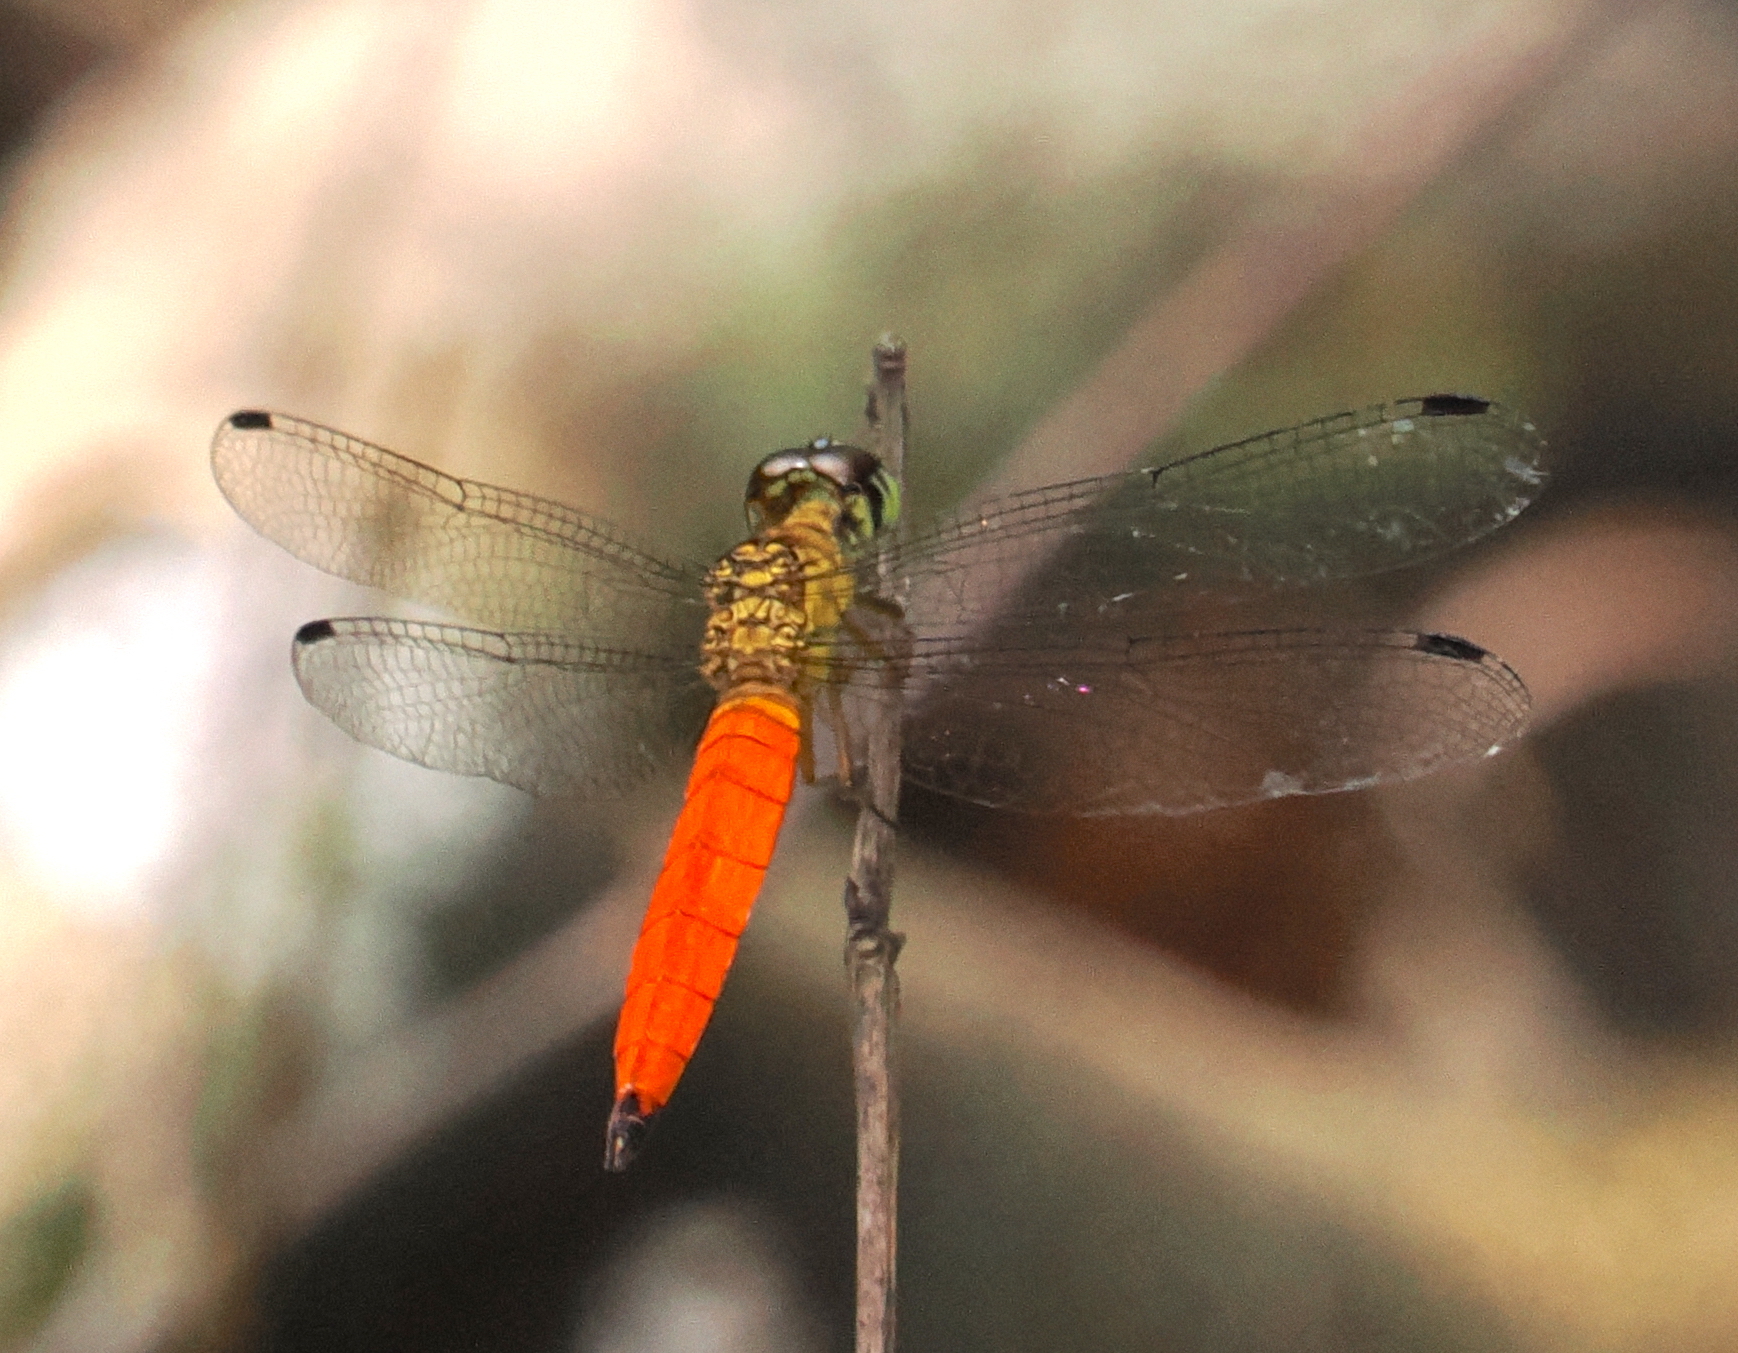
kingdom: Animalia
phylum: Arthropoda
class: Insecta
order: Odonata
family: Libellulidae
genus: Orchithemis
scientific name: Orchithemis pulcherrima
